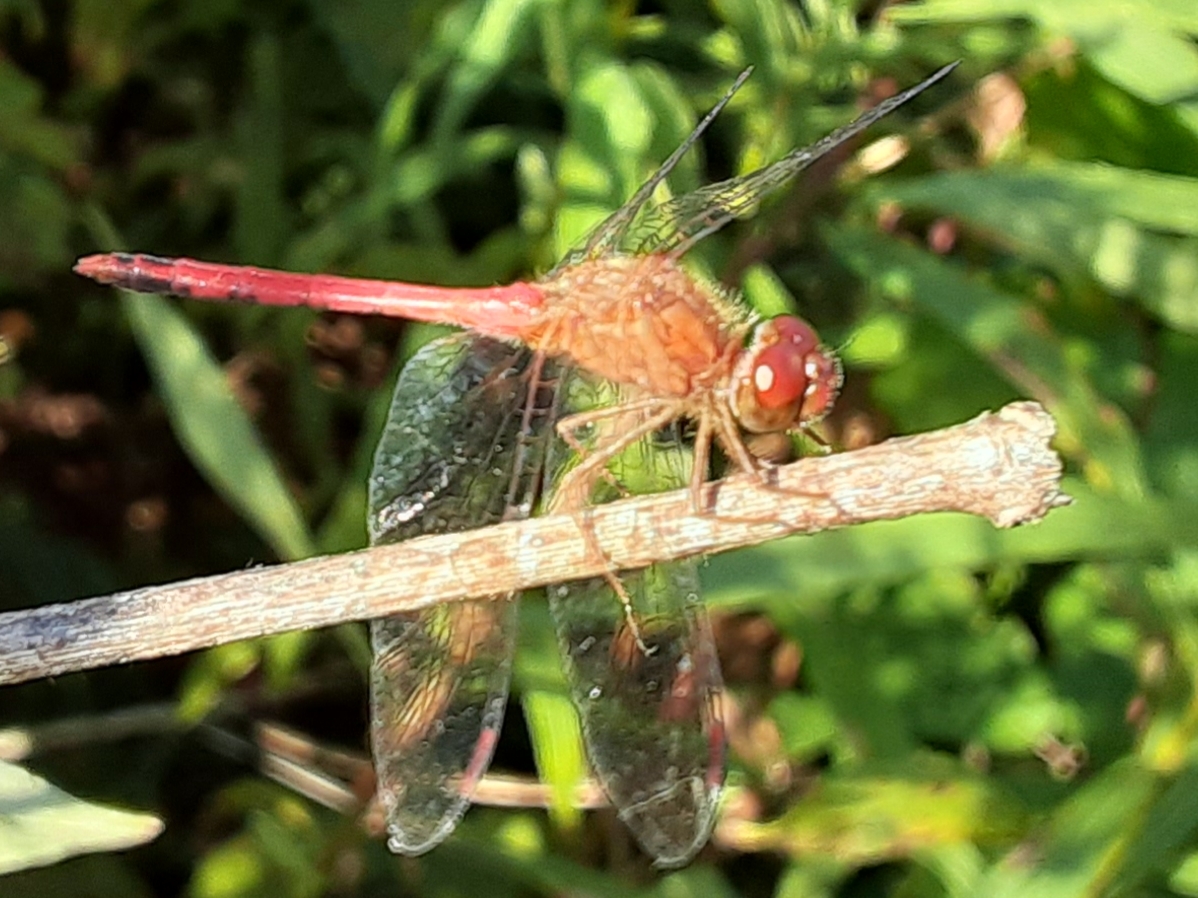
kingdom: Animalia
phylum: Arthropoda
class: Insecta
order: Odonata
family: Libellulidae
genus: Sympetrum
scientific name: Sympetrum vicinum
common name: Autumn meadowhawk
